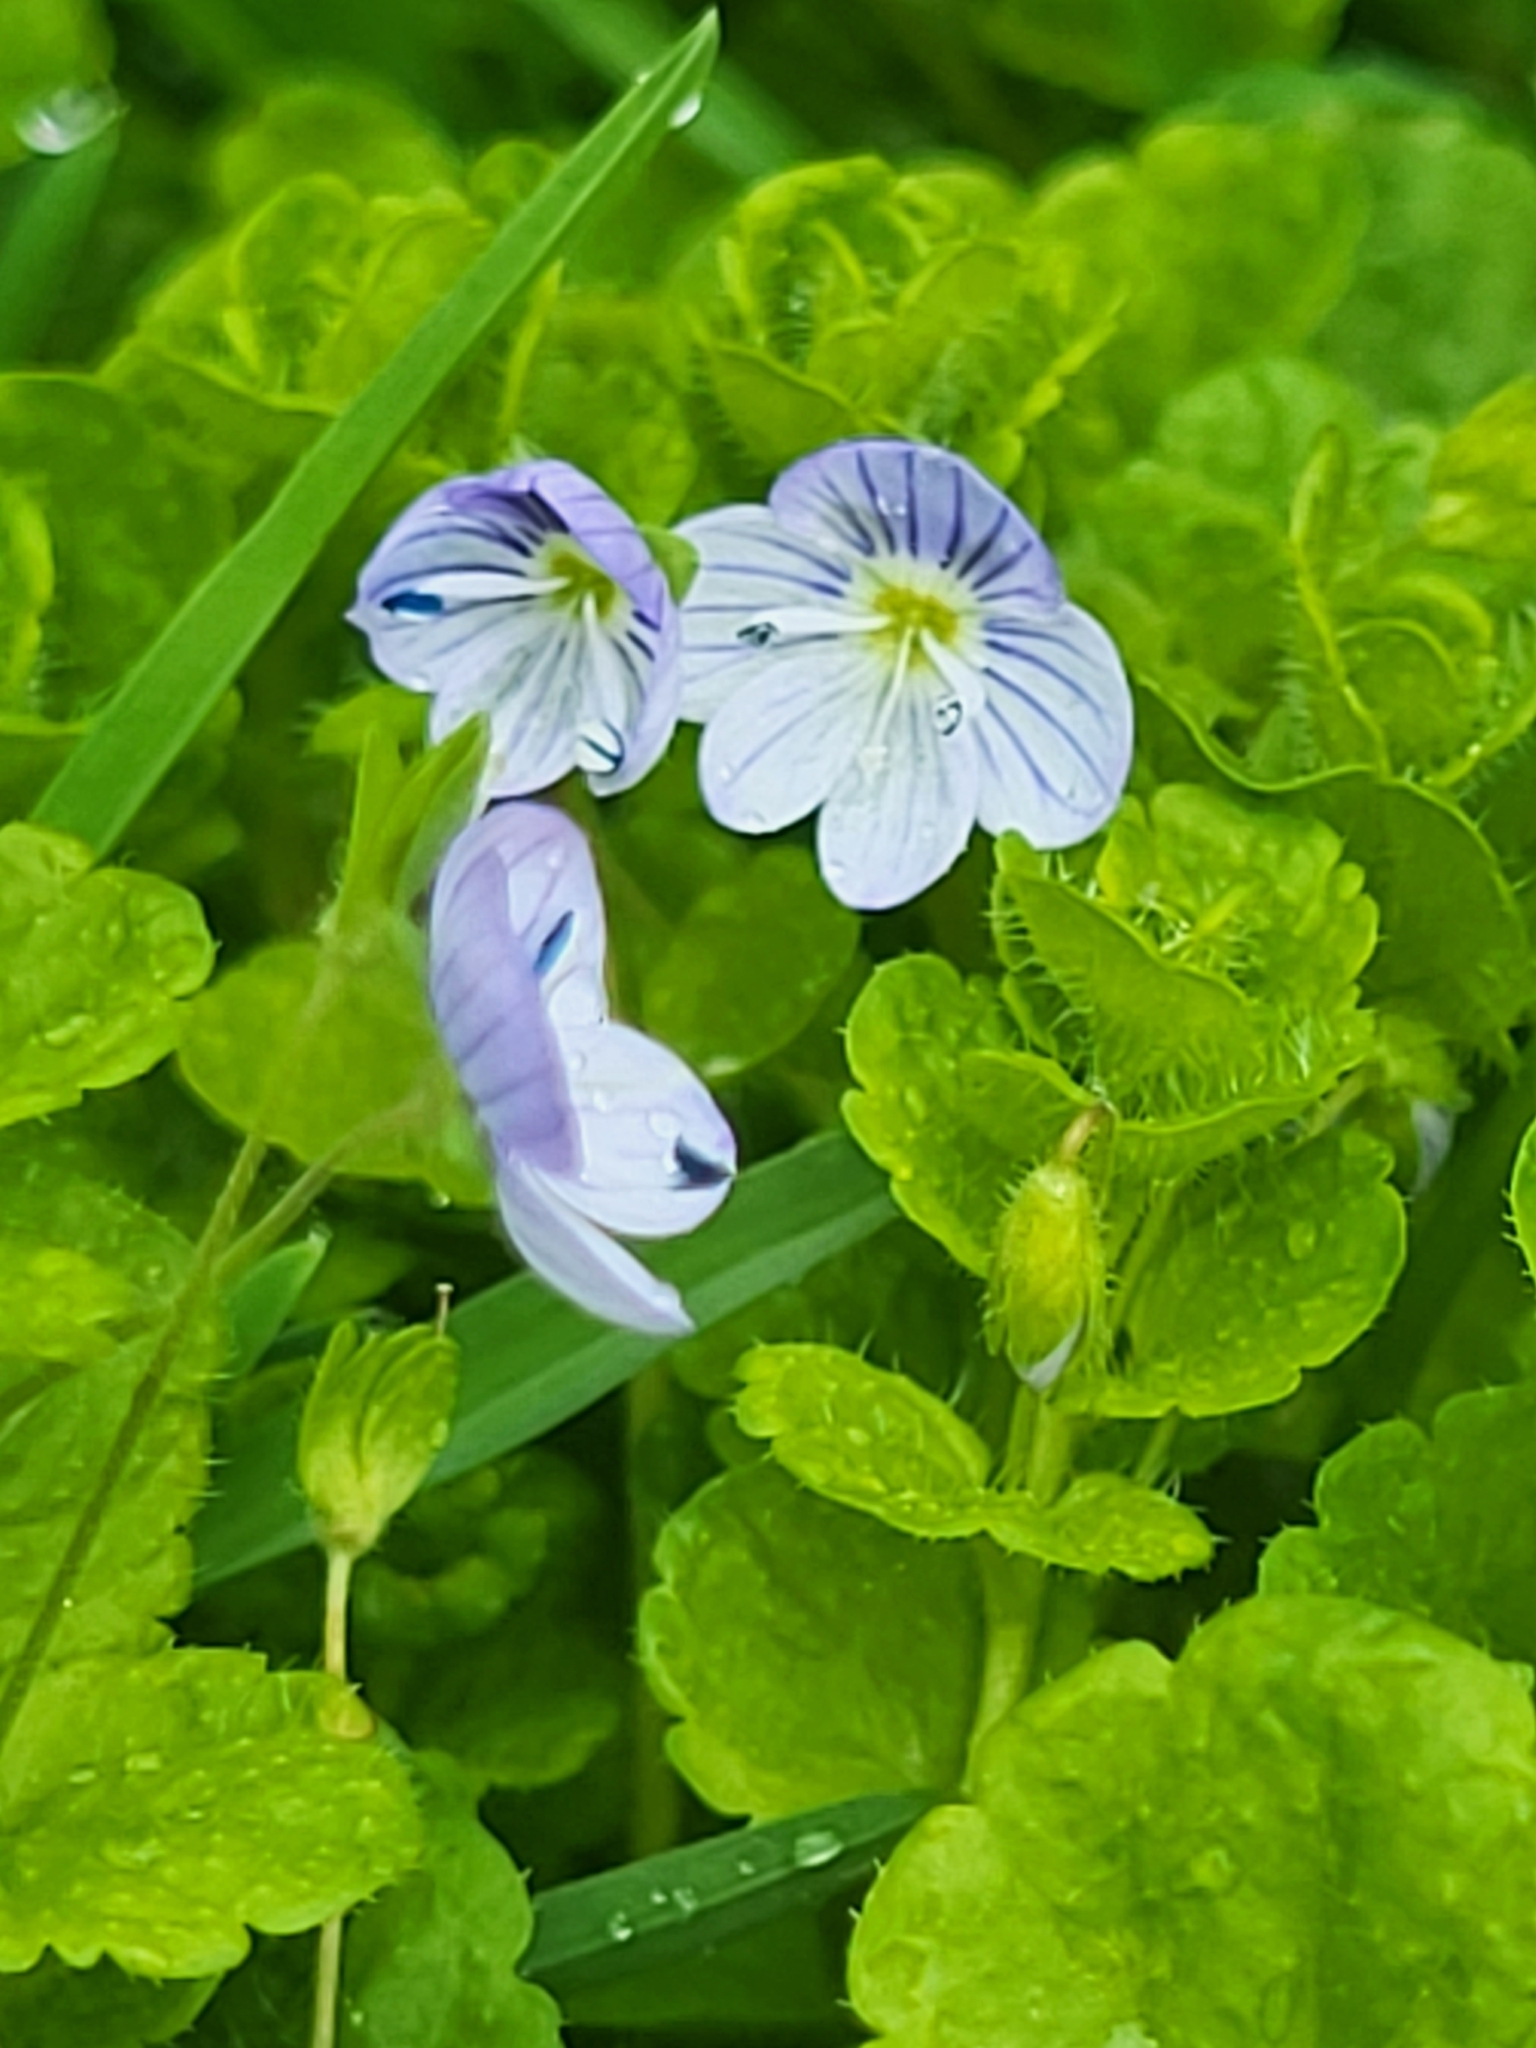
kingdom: Plantae
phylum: Tracheophyta
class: Magnoliopsida
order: Lamiales
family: Plantaginaceae
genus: Veronica
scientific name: Veronica filiformis
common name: Slender speedwell
